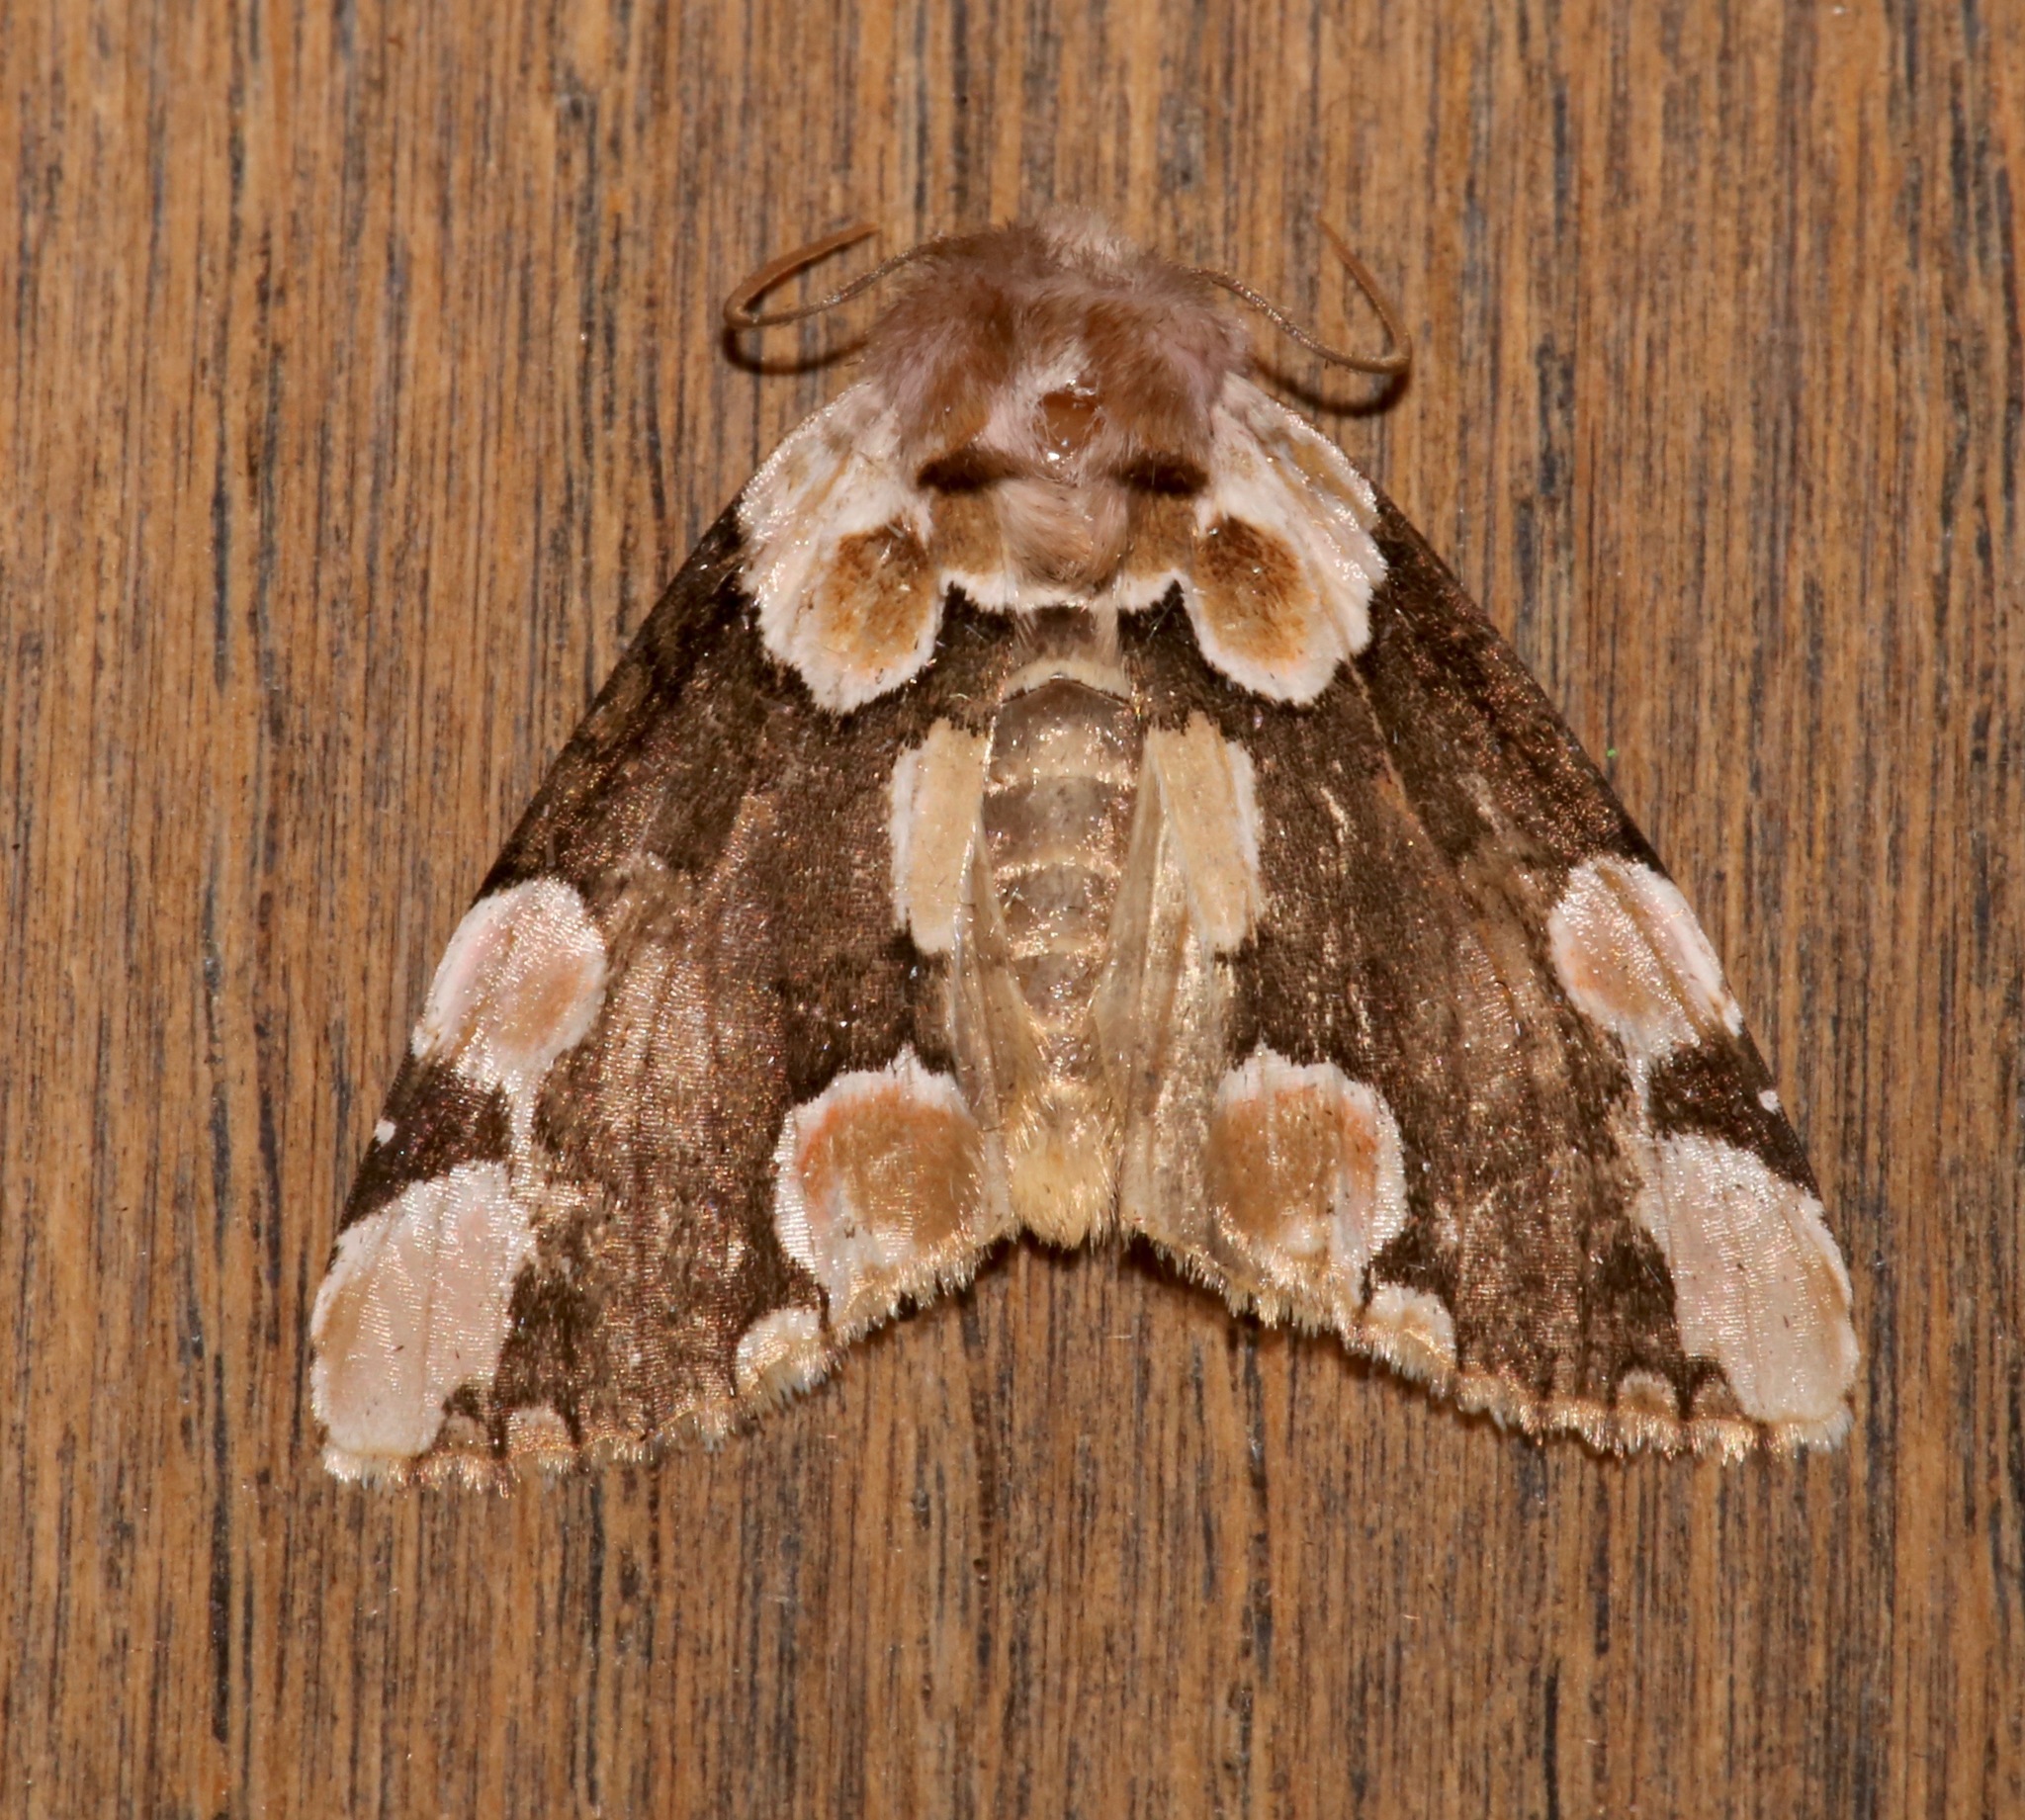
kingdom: Animalia
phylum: Arthropoda
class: Insecta
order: Lepidoptera
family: Drepanidae
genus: Thyatira
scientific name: Thyatira mexicana
